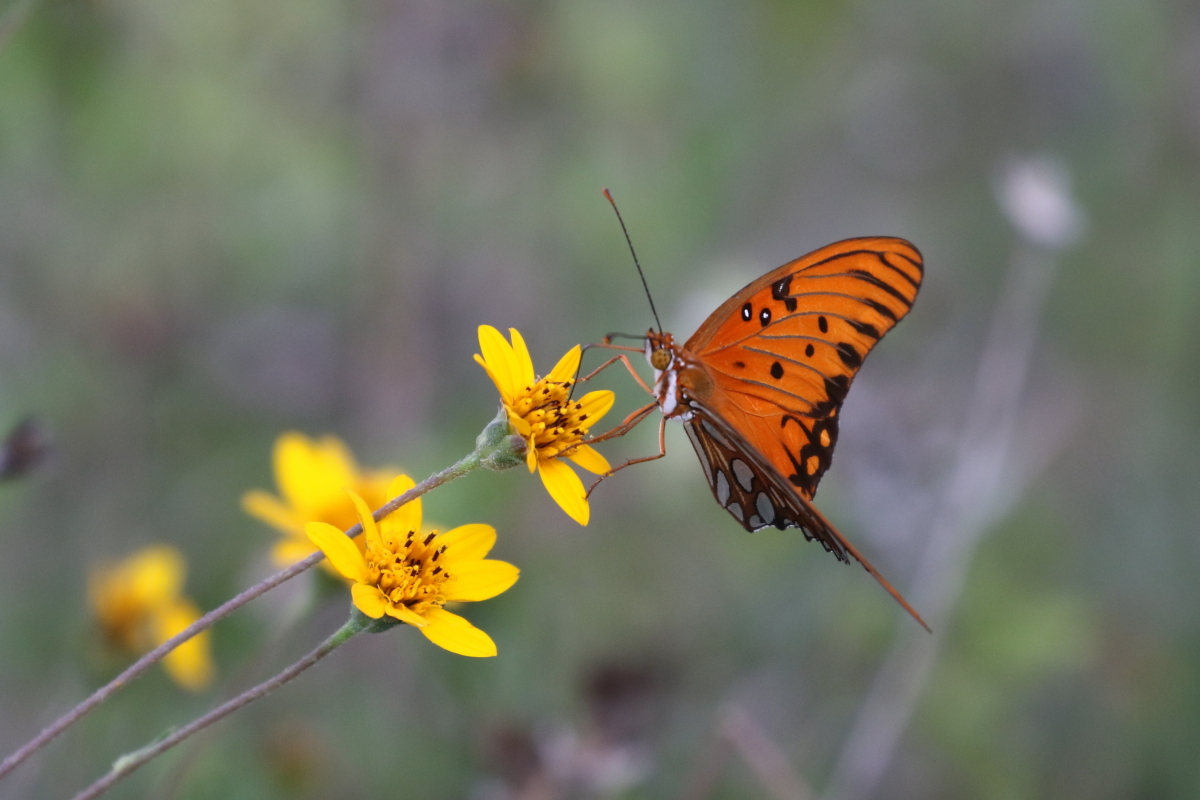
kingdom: Animalia
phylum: Arthropoda
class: Insecta
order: Lepidoptera
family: Nymphalidae
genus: Dione
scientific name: Dione vanillae
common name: Gulf fritillary
